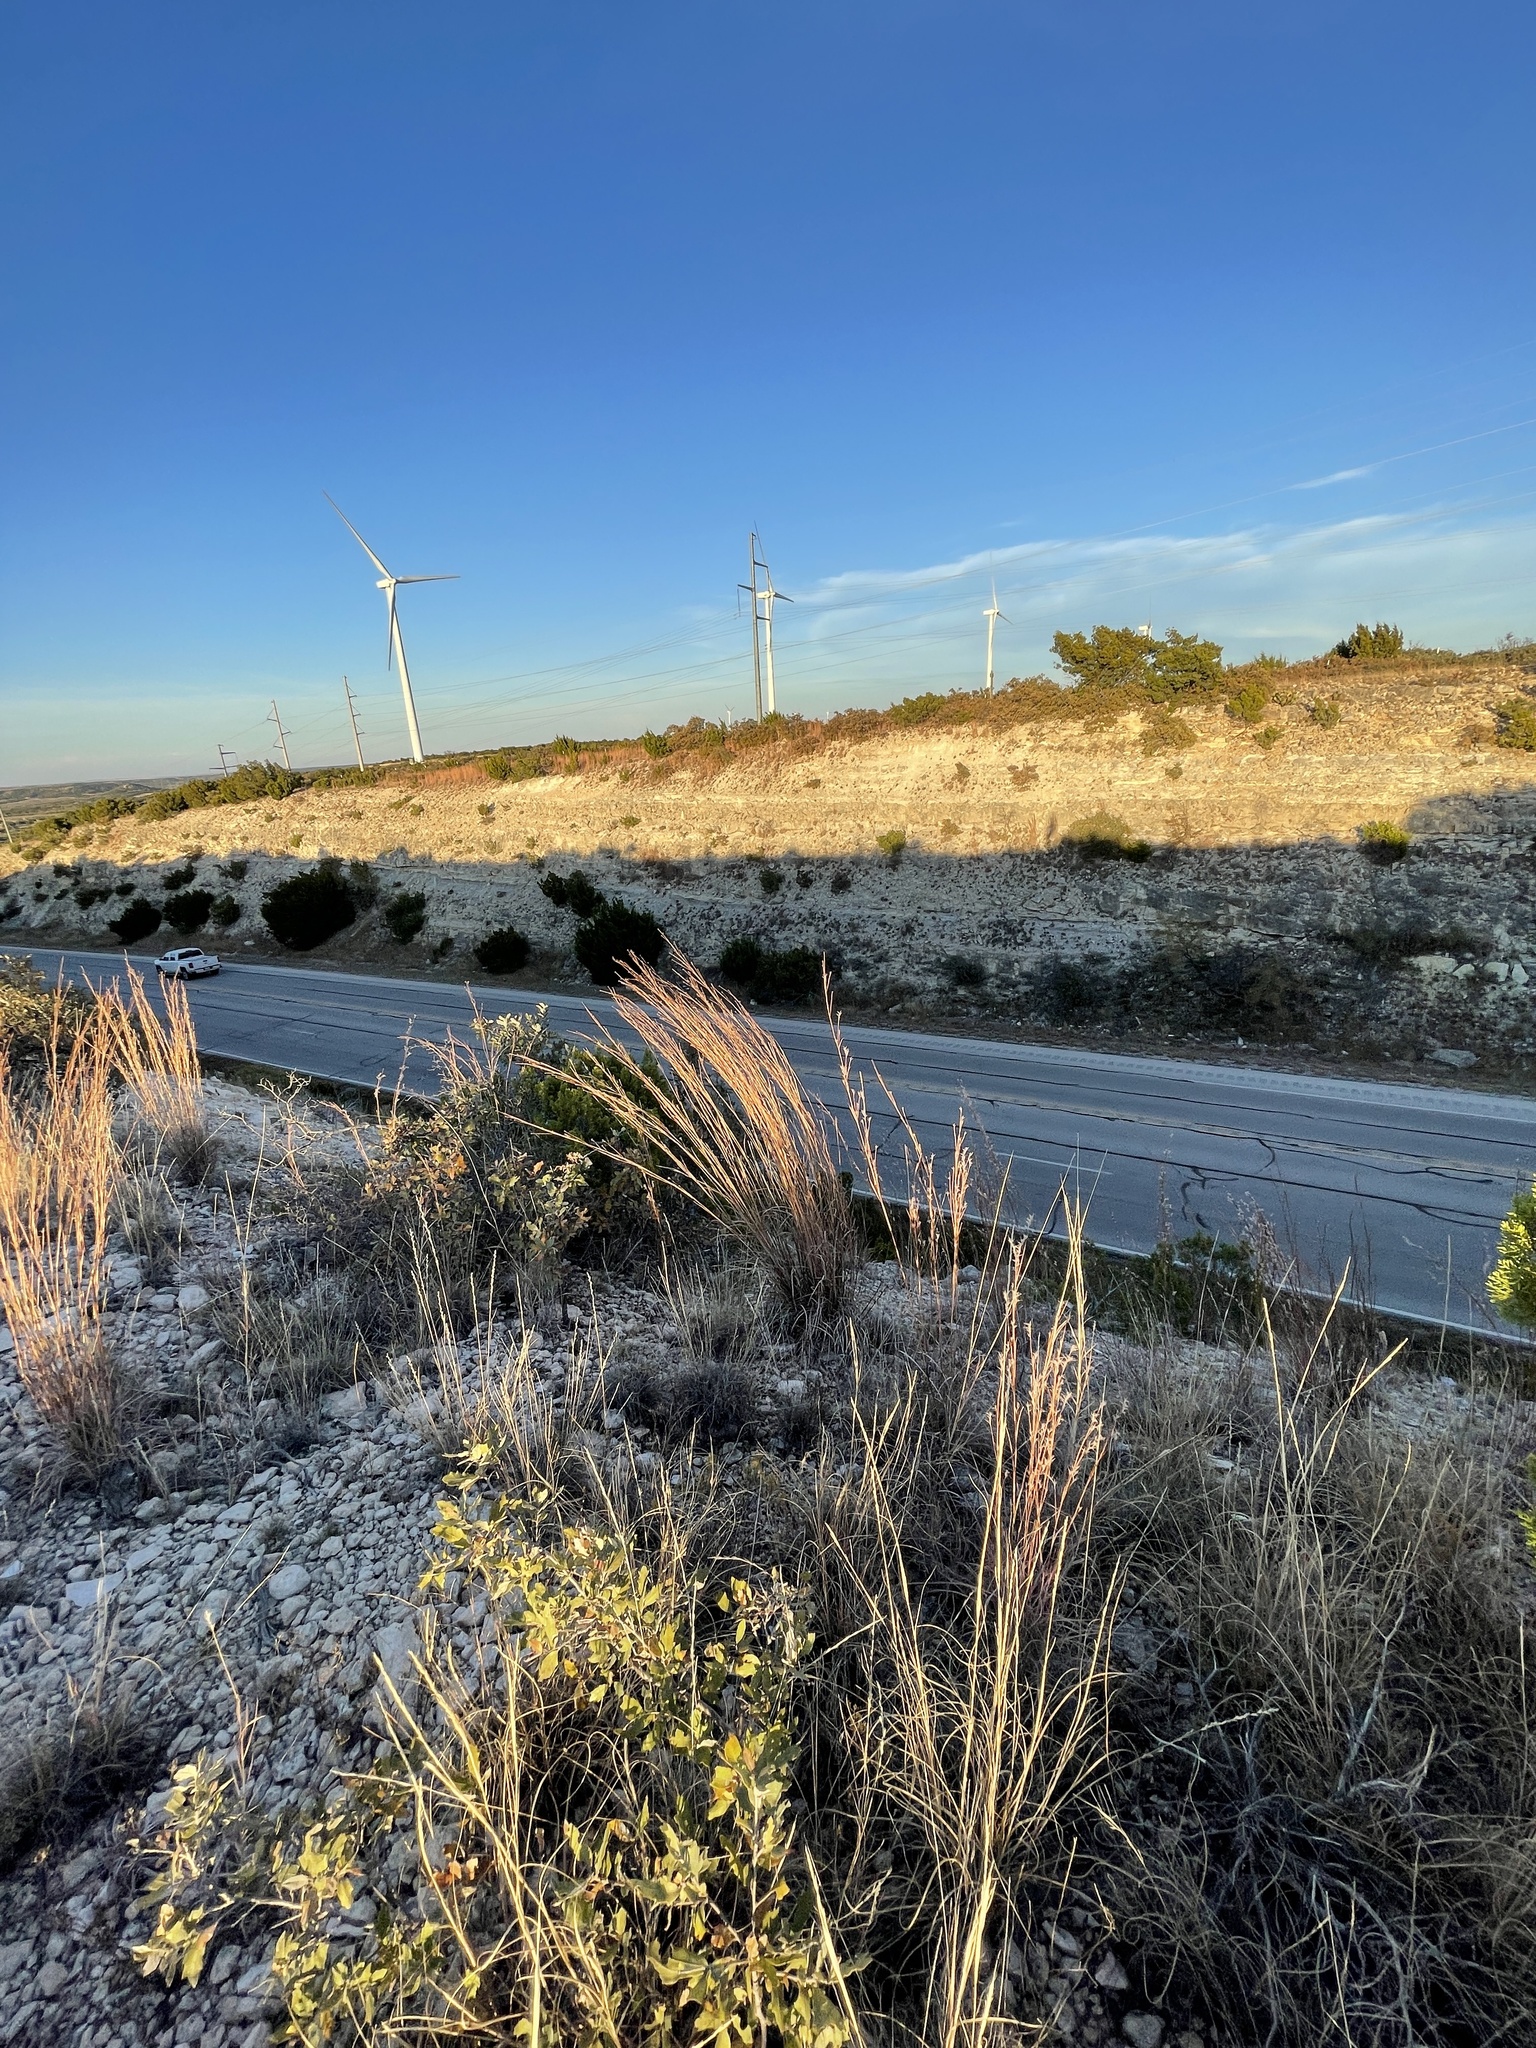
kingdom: Plantae
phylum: Tracheophyta
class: Liliopsida
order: Poales
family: Poaceae
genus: Schizachyrium
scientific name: Schizachyrium scoparium
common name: Little bluestem
